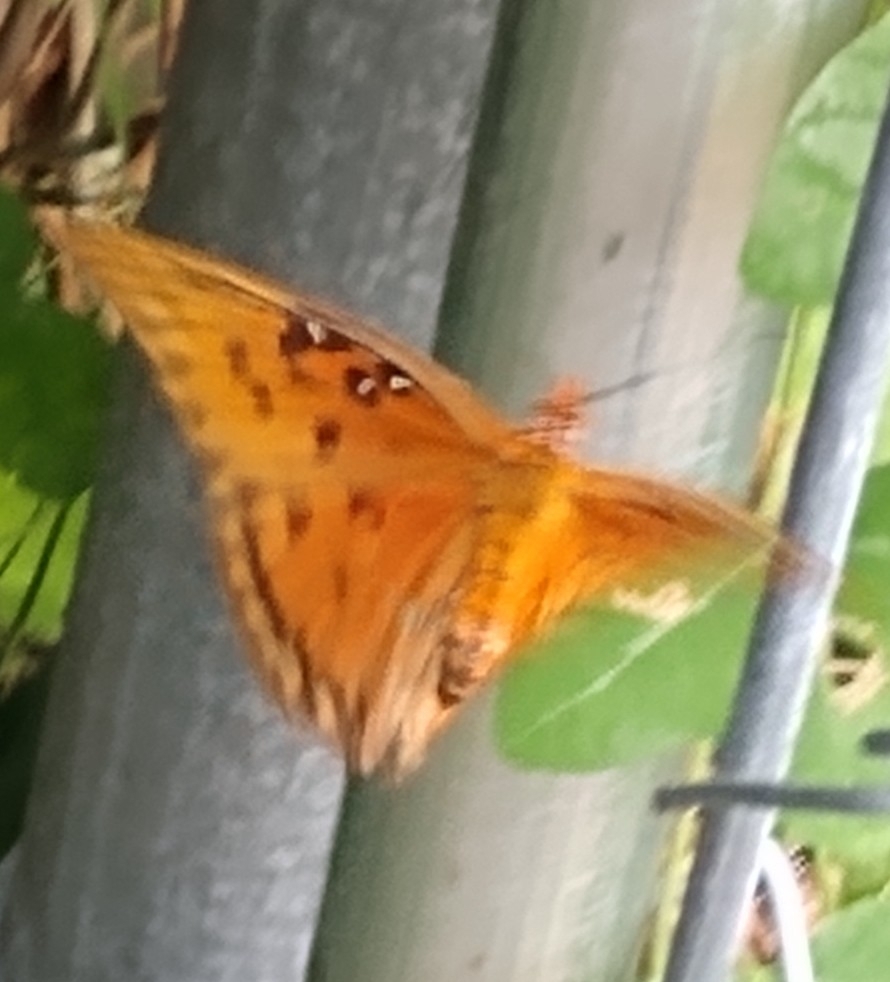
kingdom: Animalia
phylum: Arthropoda
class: Insecta
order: Lepidoptera
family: Nymphalidae
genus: Dione
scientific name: Dione vanillae
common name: Gulf fritillary
